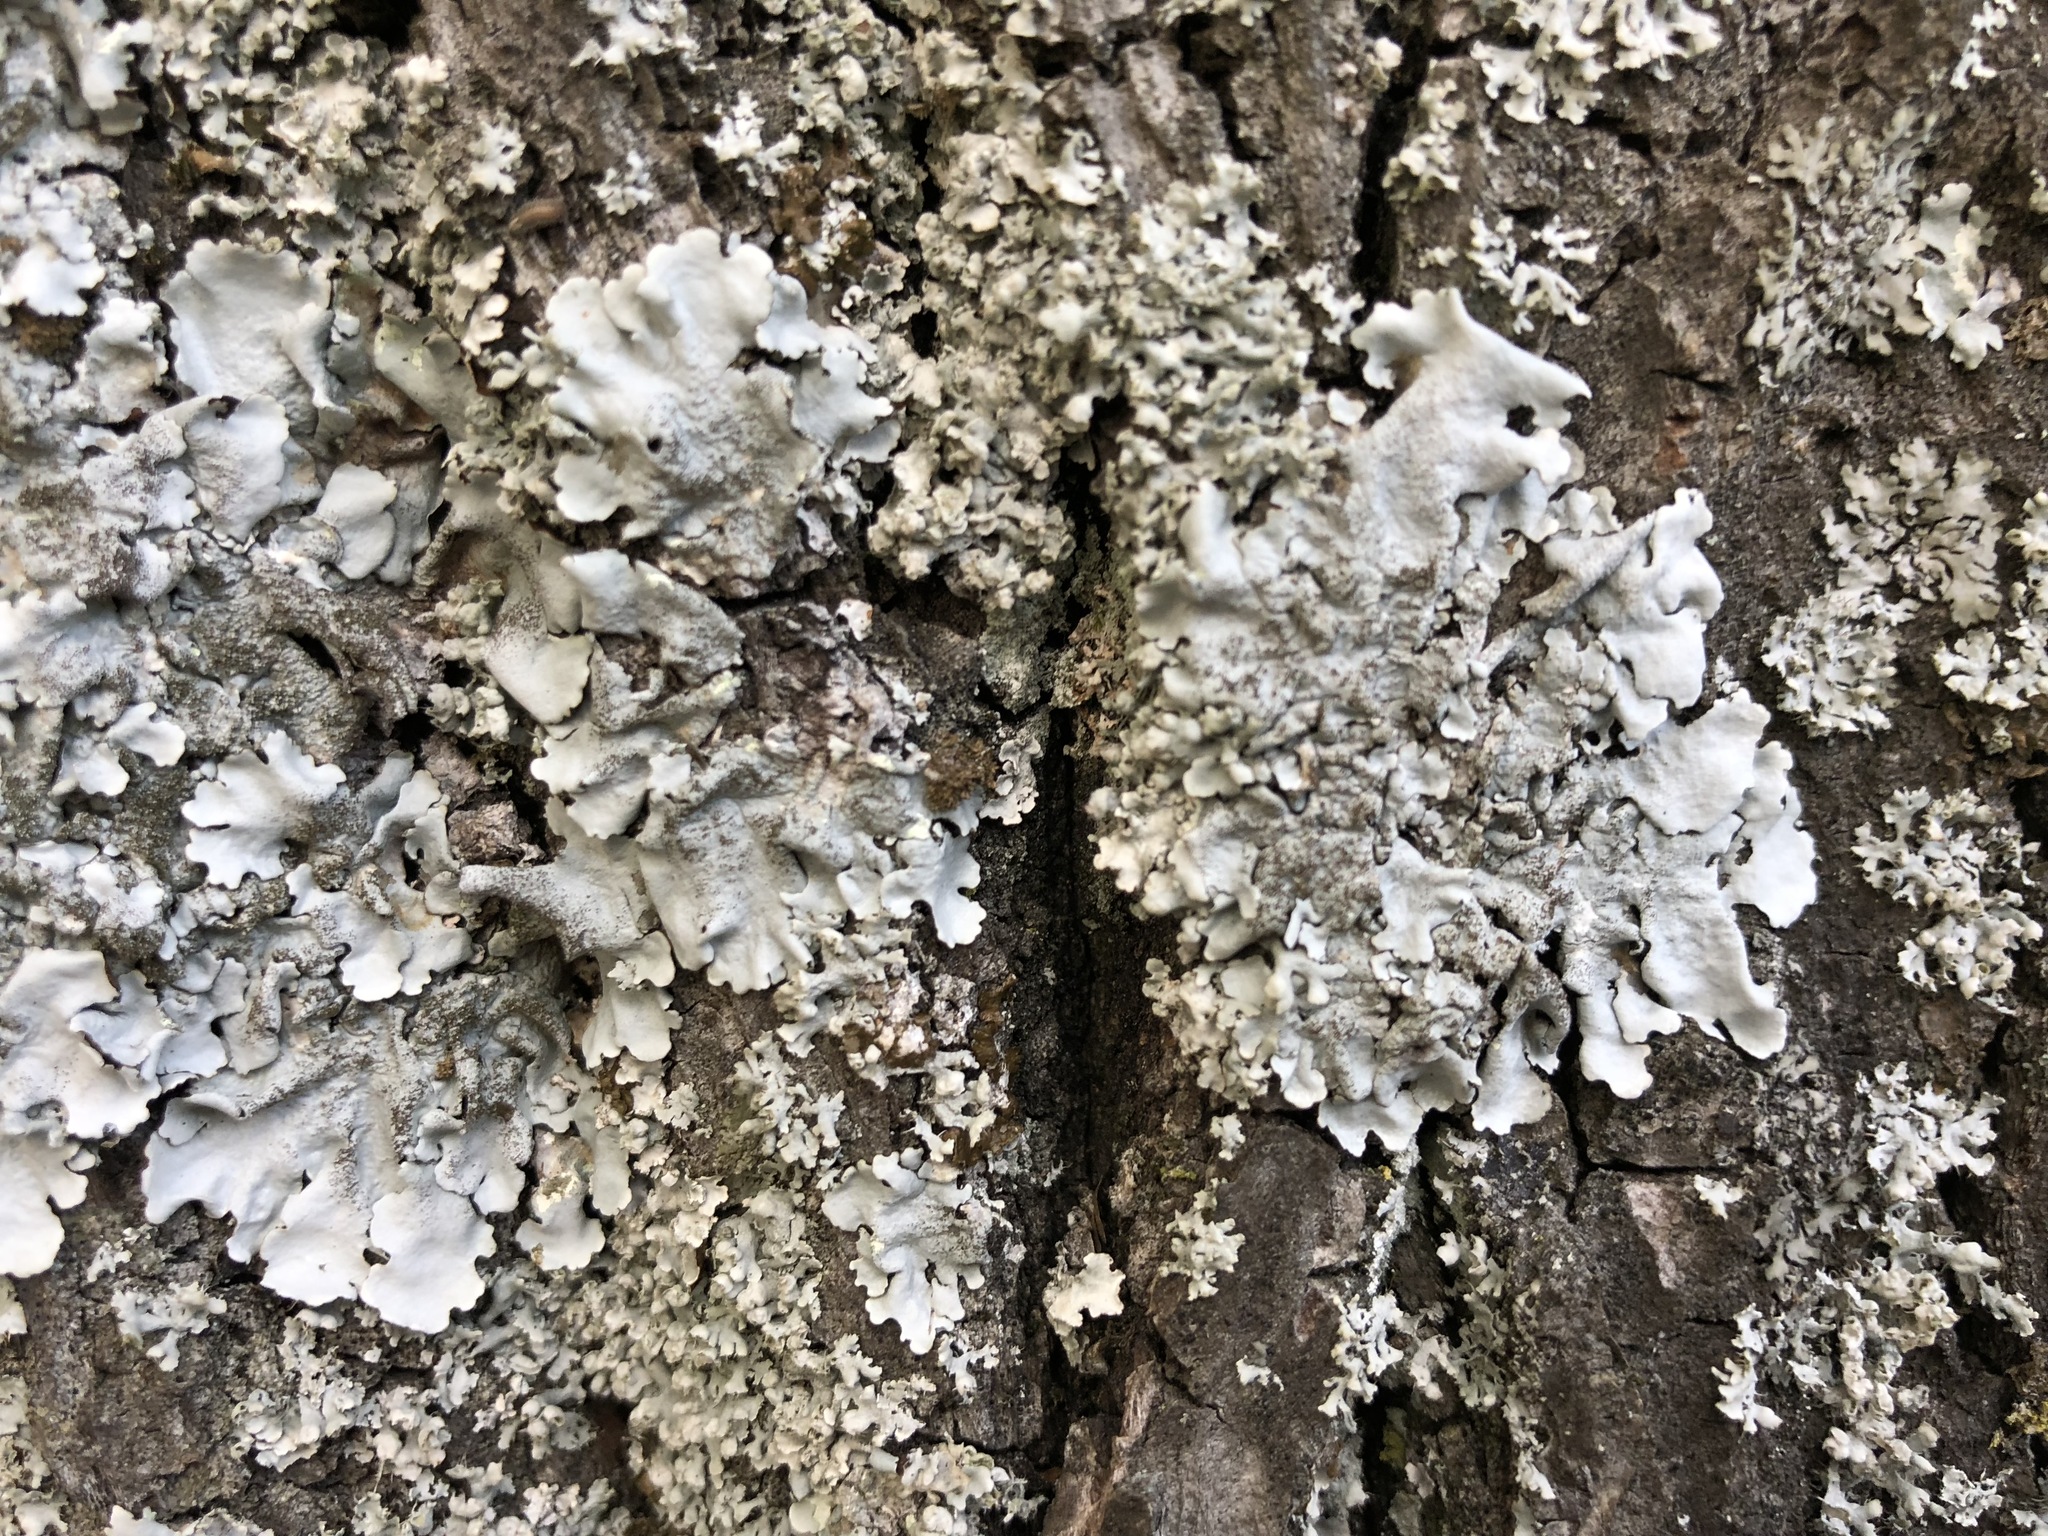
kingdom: Fungi
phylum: Ascomycota
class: Lecanoromycetes
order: Lecanorales
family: Parmeliaceae
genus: Parmelina
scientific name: Parmelina tiliacea
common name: Linden shield lichen
